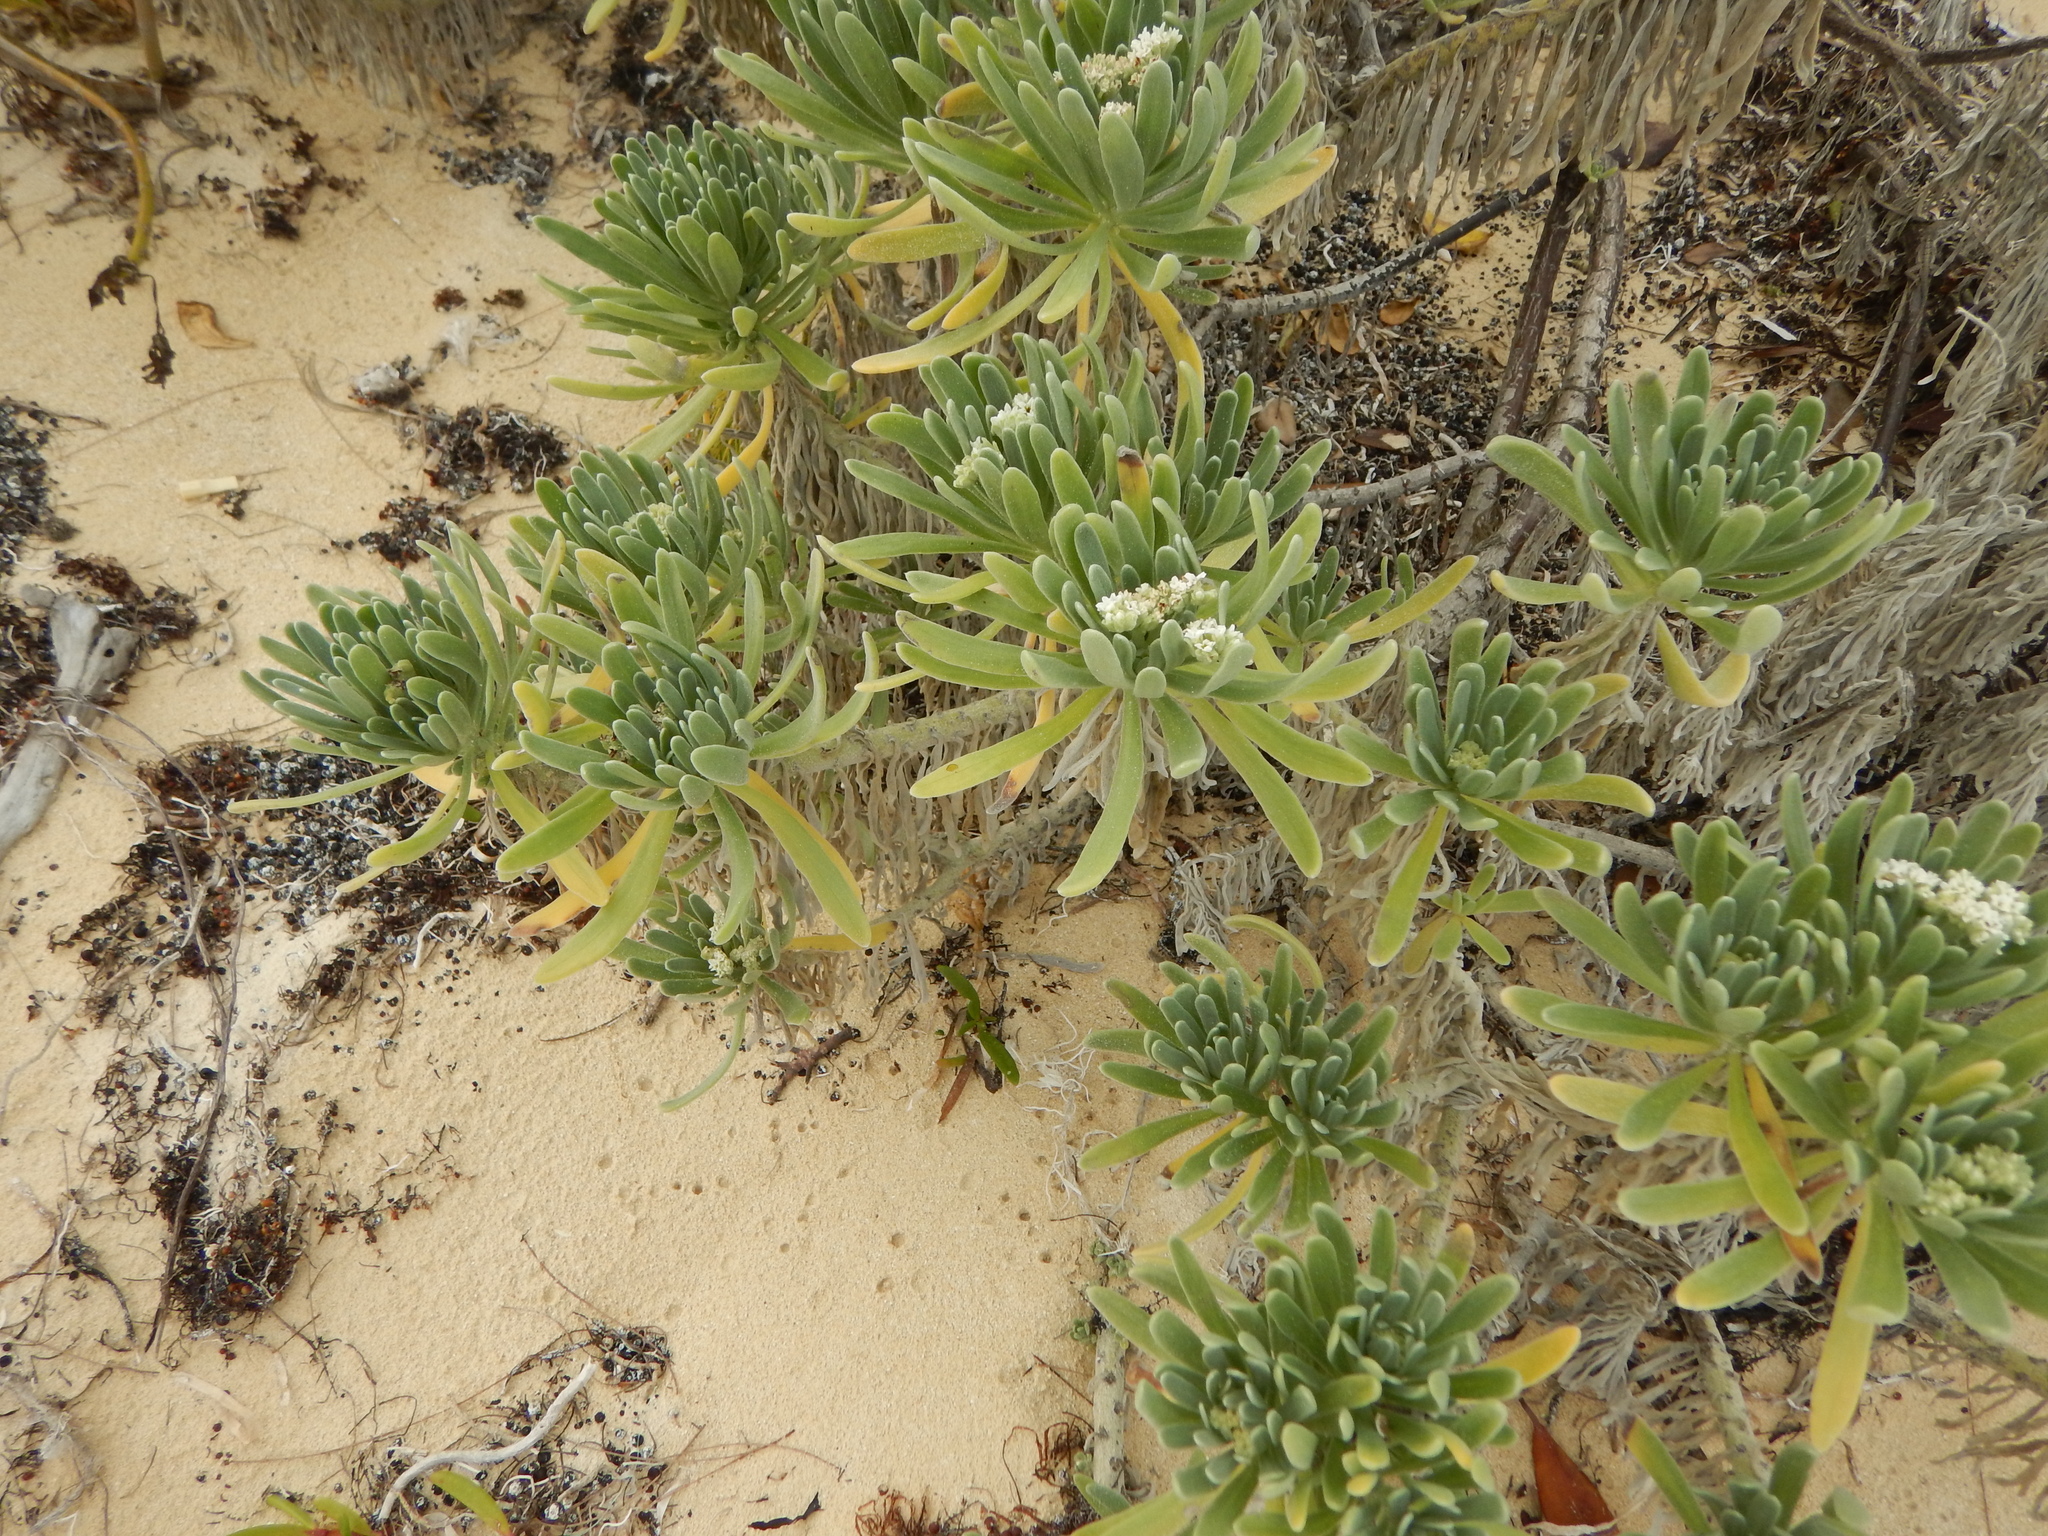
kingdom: Plantae
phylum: Tracheophyta
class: Magnoliopsida
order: Boraginales
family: Heliotropiaceae
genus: Tournefortia
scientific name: Tournefortia gnaphalodes
